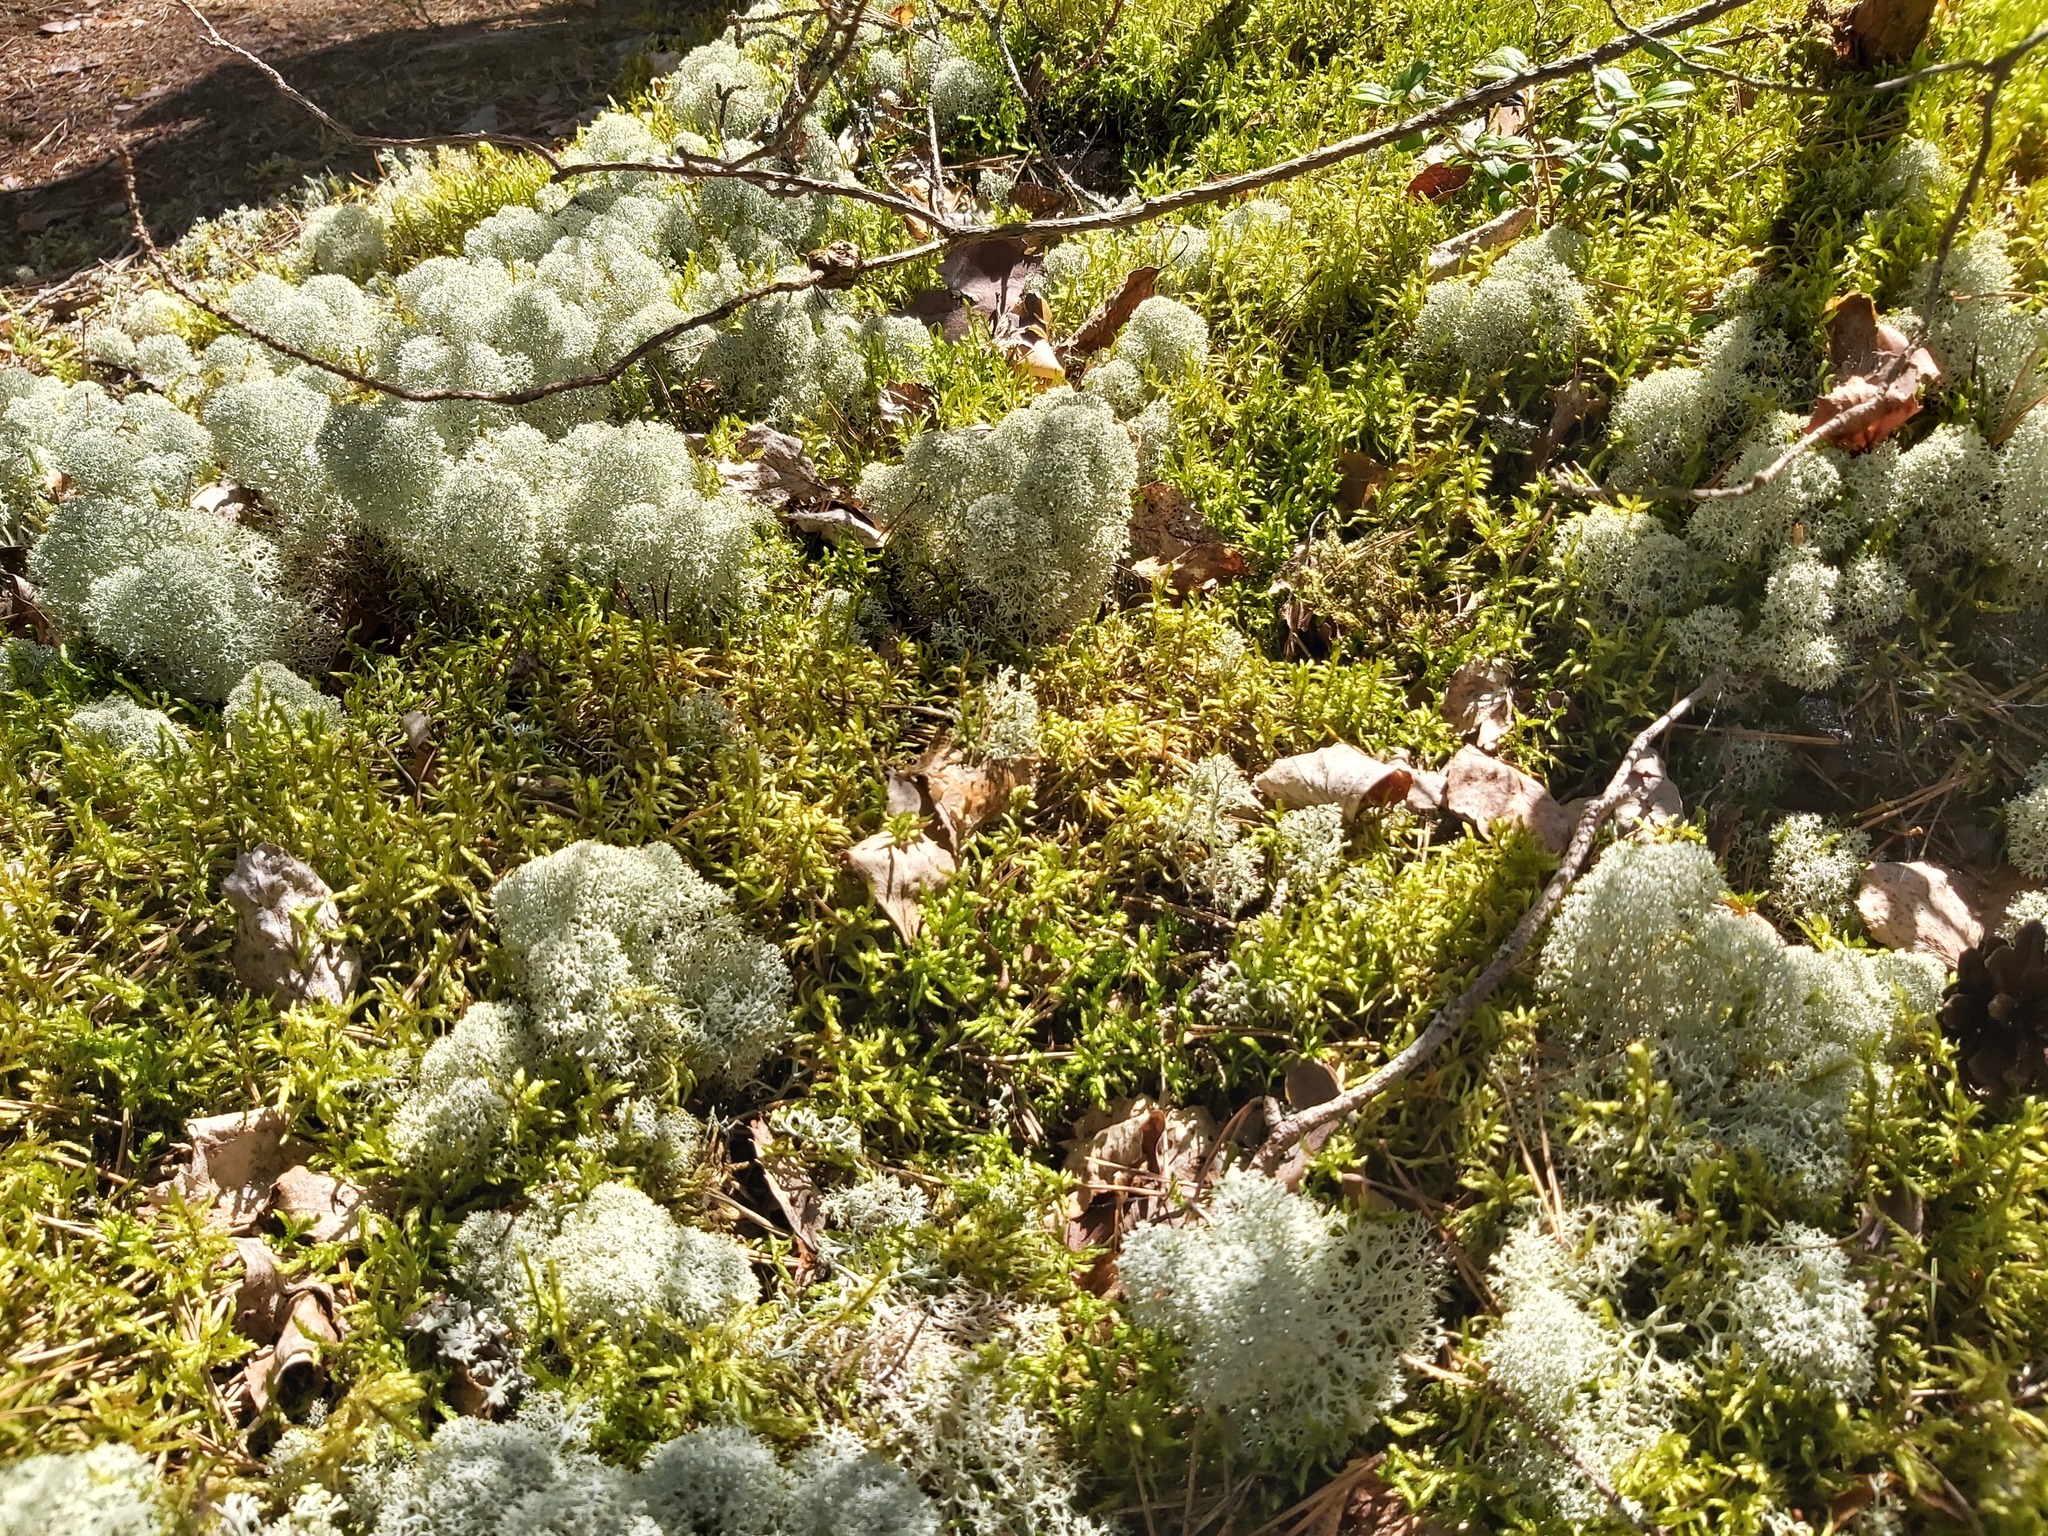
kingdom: Fungi
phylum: Ascomycota
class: Lecanoromycetes
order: Lecanorales
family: Cladoniaceae
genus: Cladonia
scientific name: Cladonia stellaris
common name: Star-tipped reindeer lichen
